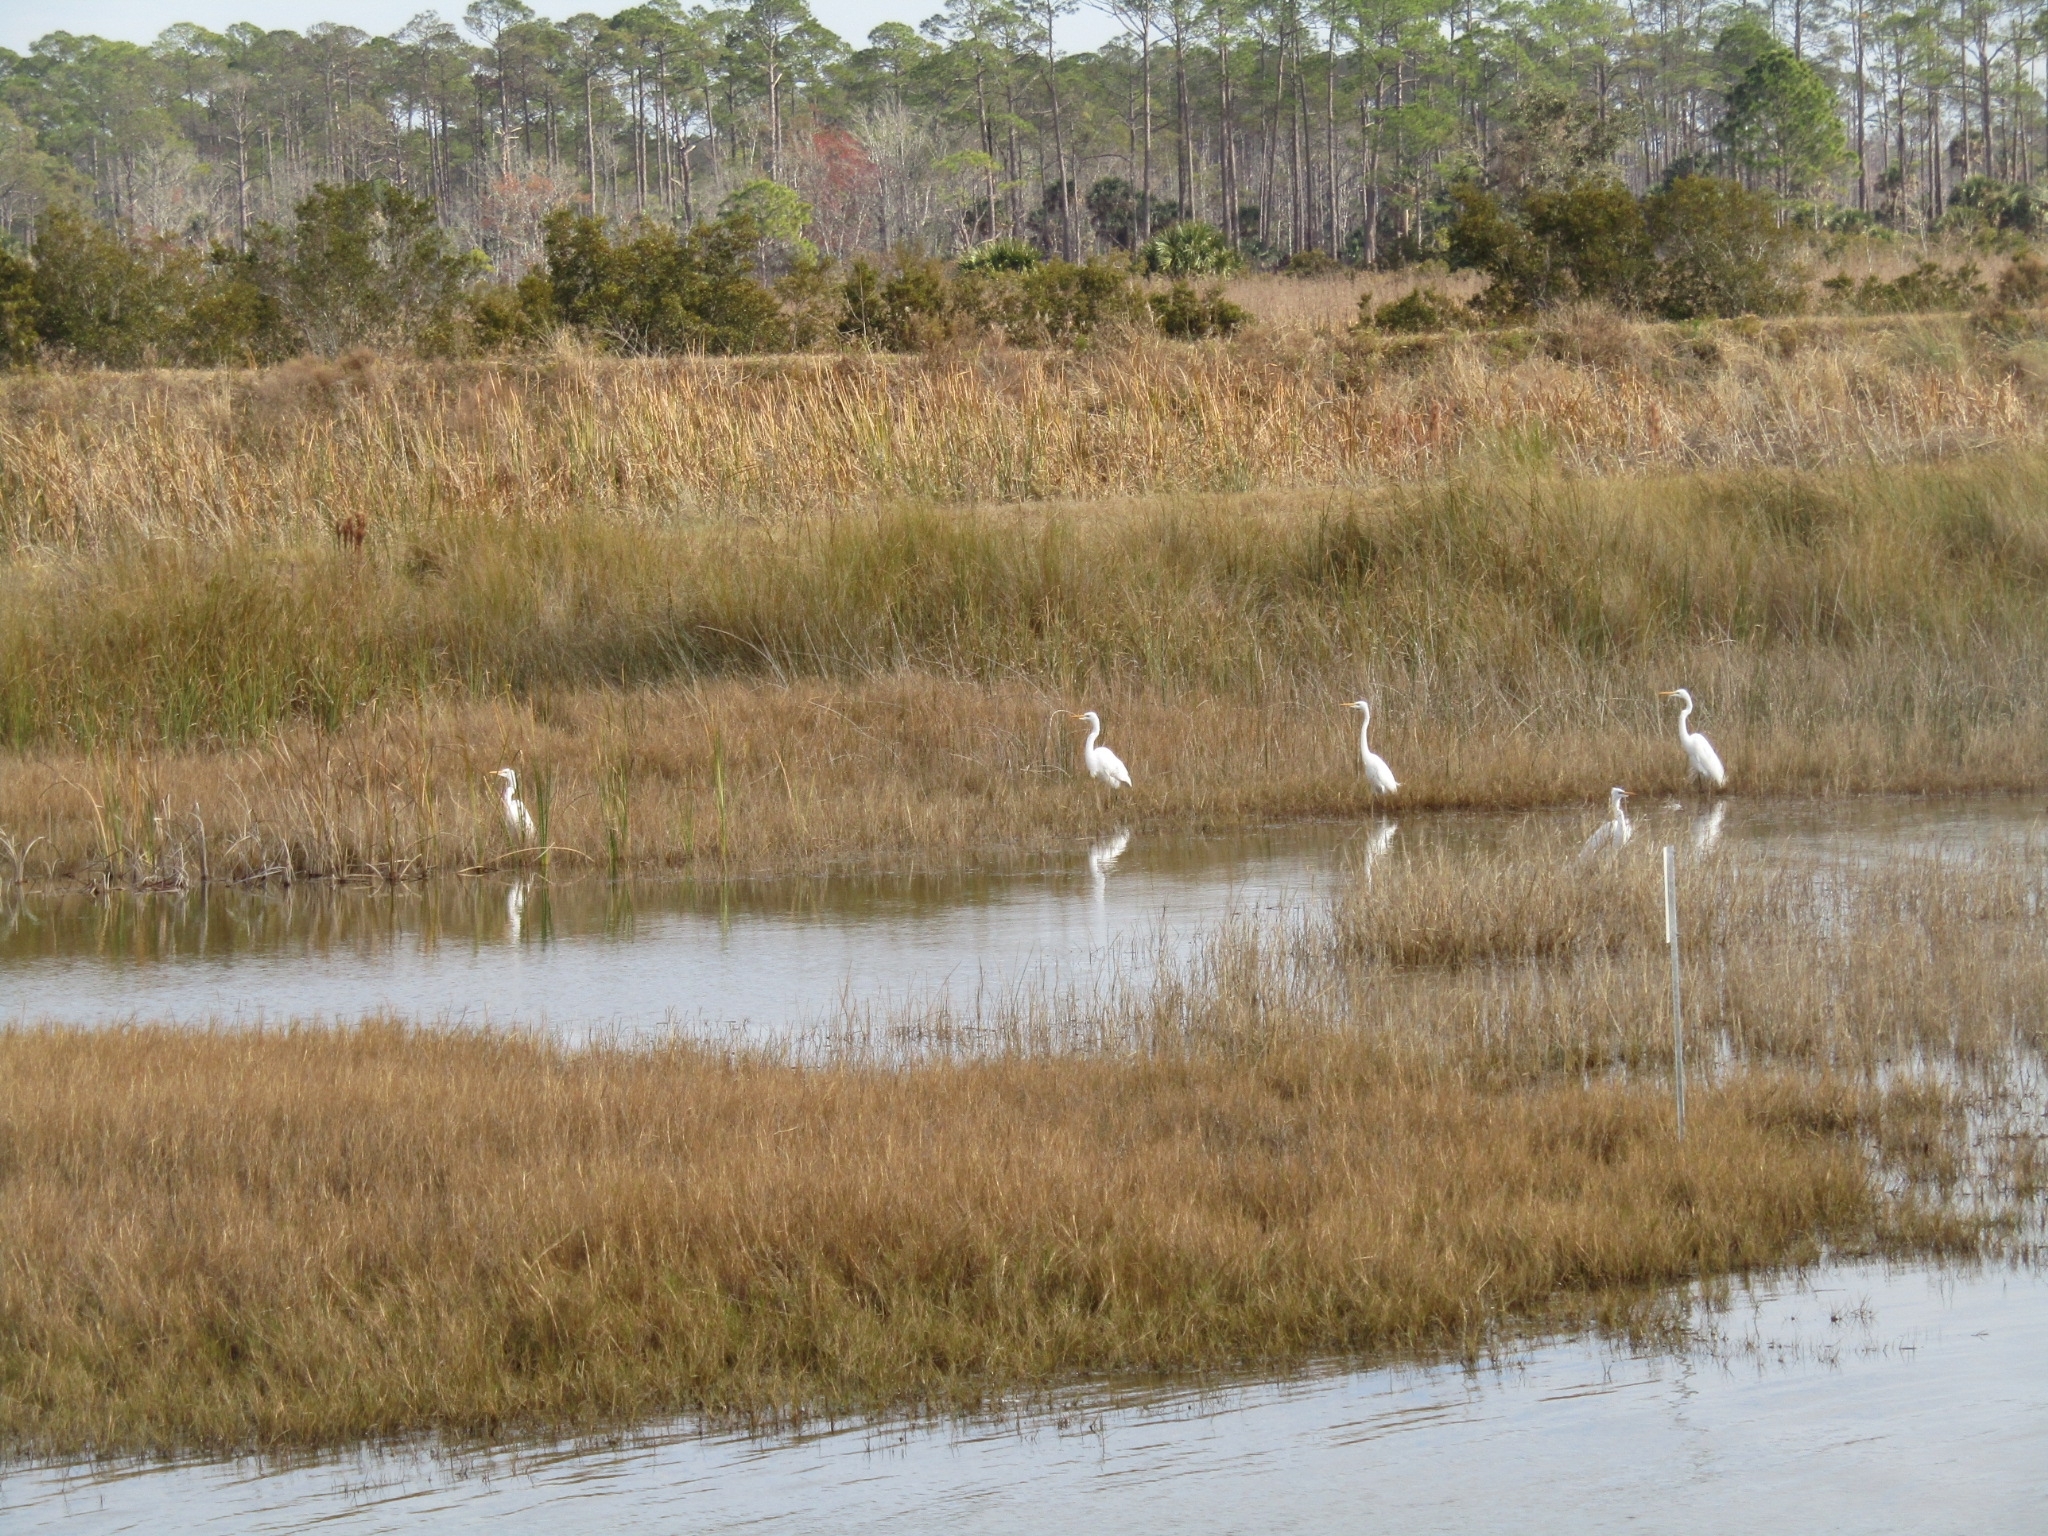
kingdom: Animalia
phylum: Chordata
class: Aves
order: Pelecaniformes
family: Ardeidae
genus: Ardea
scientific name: Ardea alba
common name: Great egret
